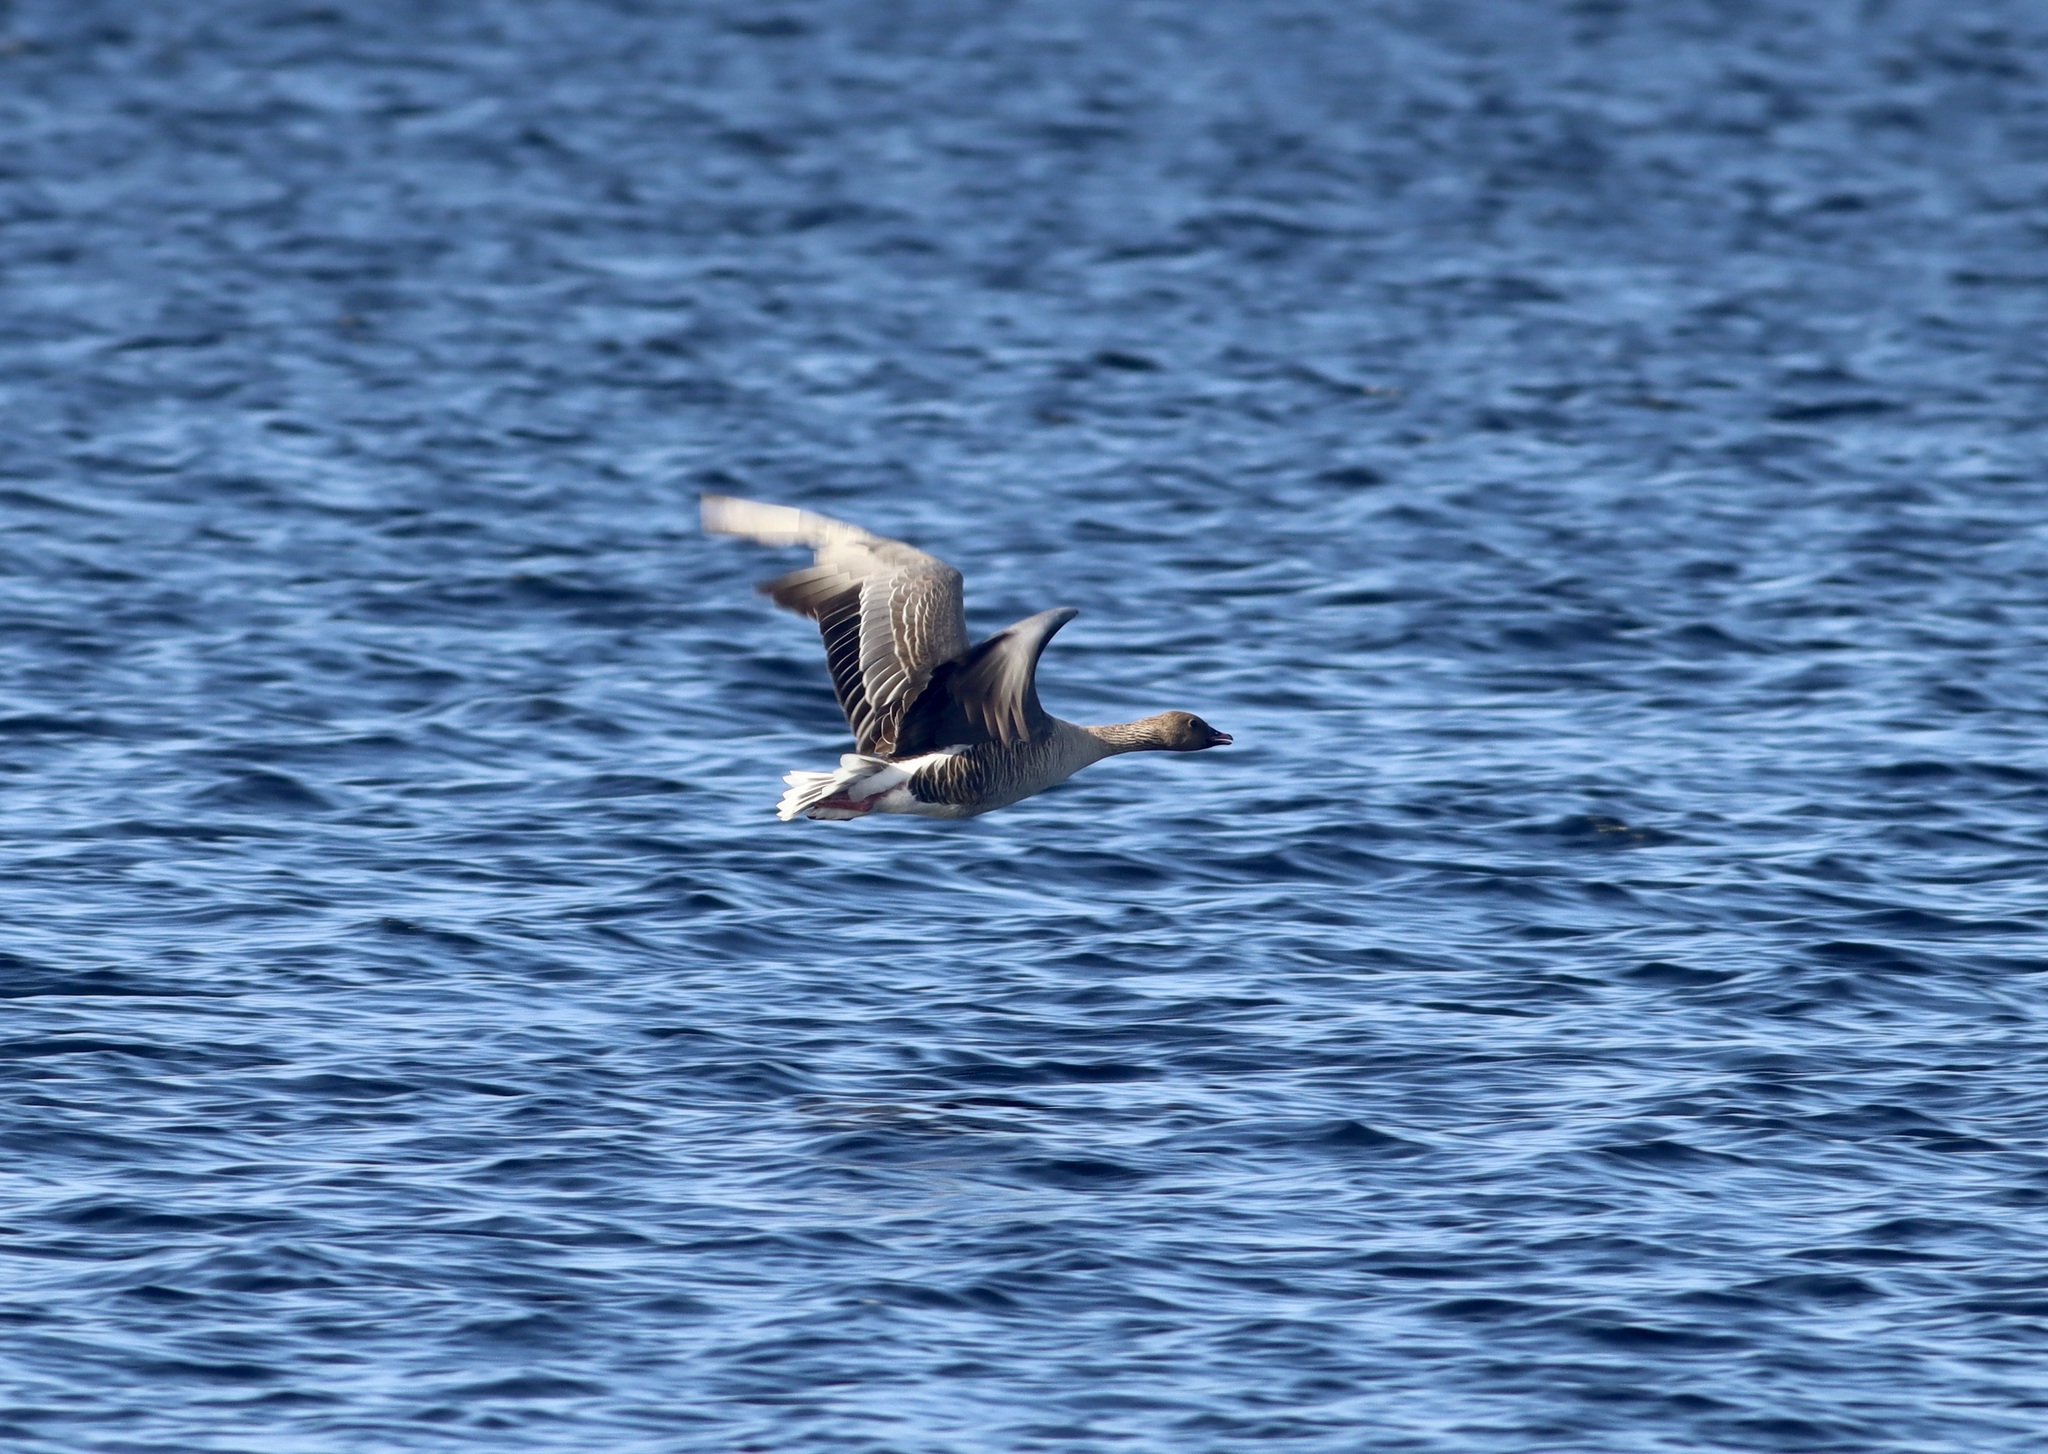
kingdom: Animalia
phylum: Chordata
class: Aves
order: Anseriformes
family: Anatidae
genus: Anser
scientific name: Anser brachyrhynchus
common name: Pink-footed goose
